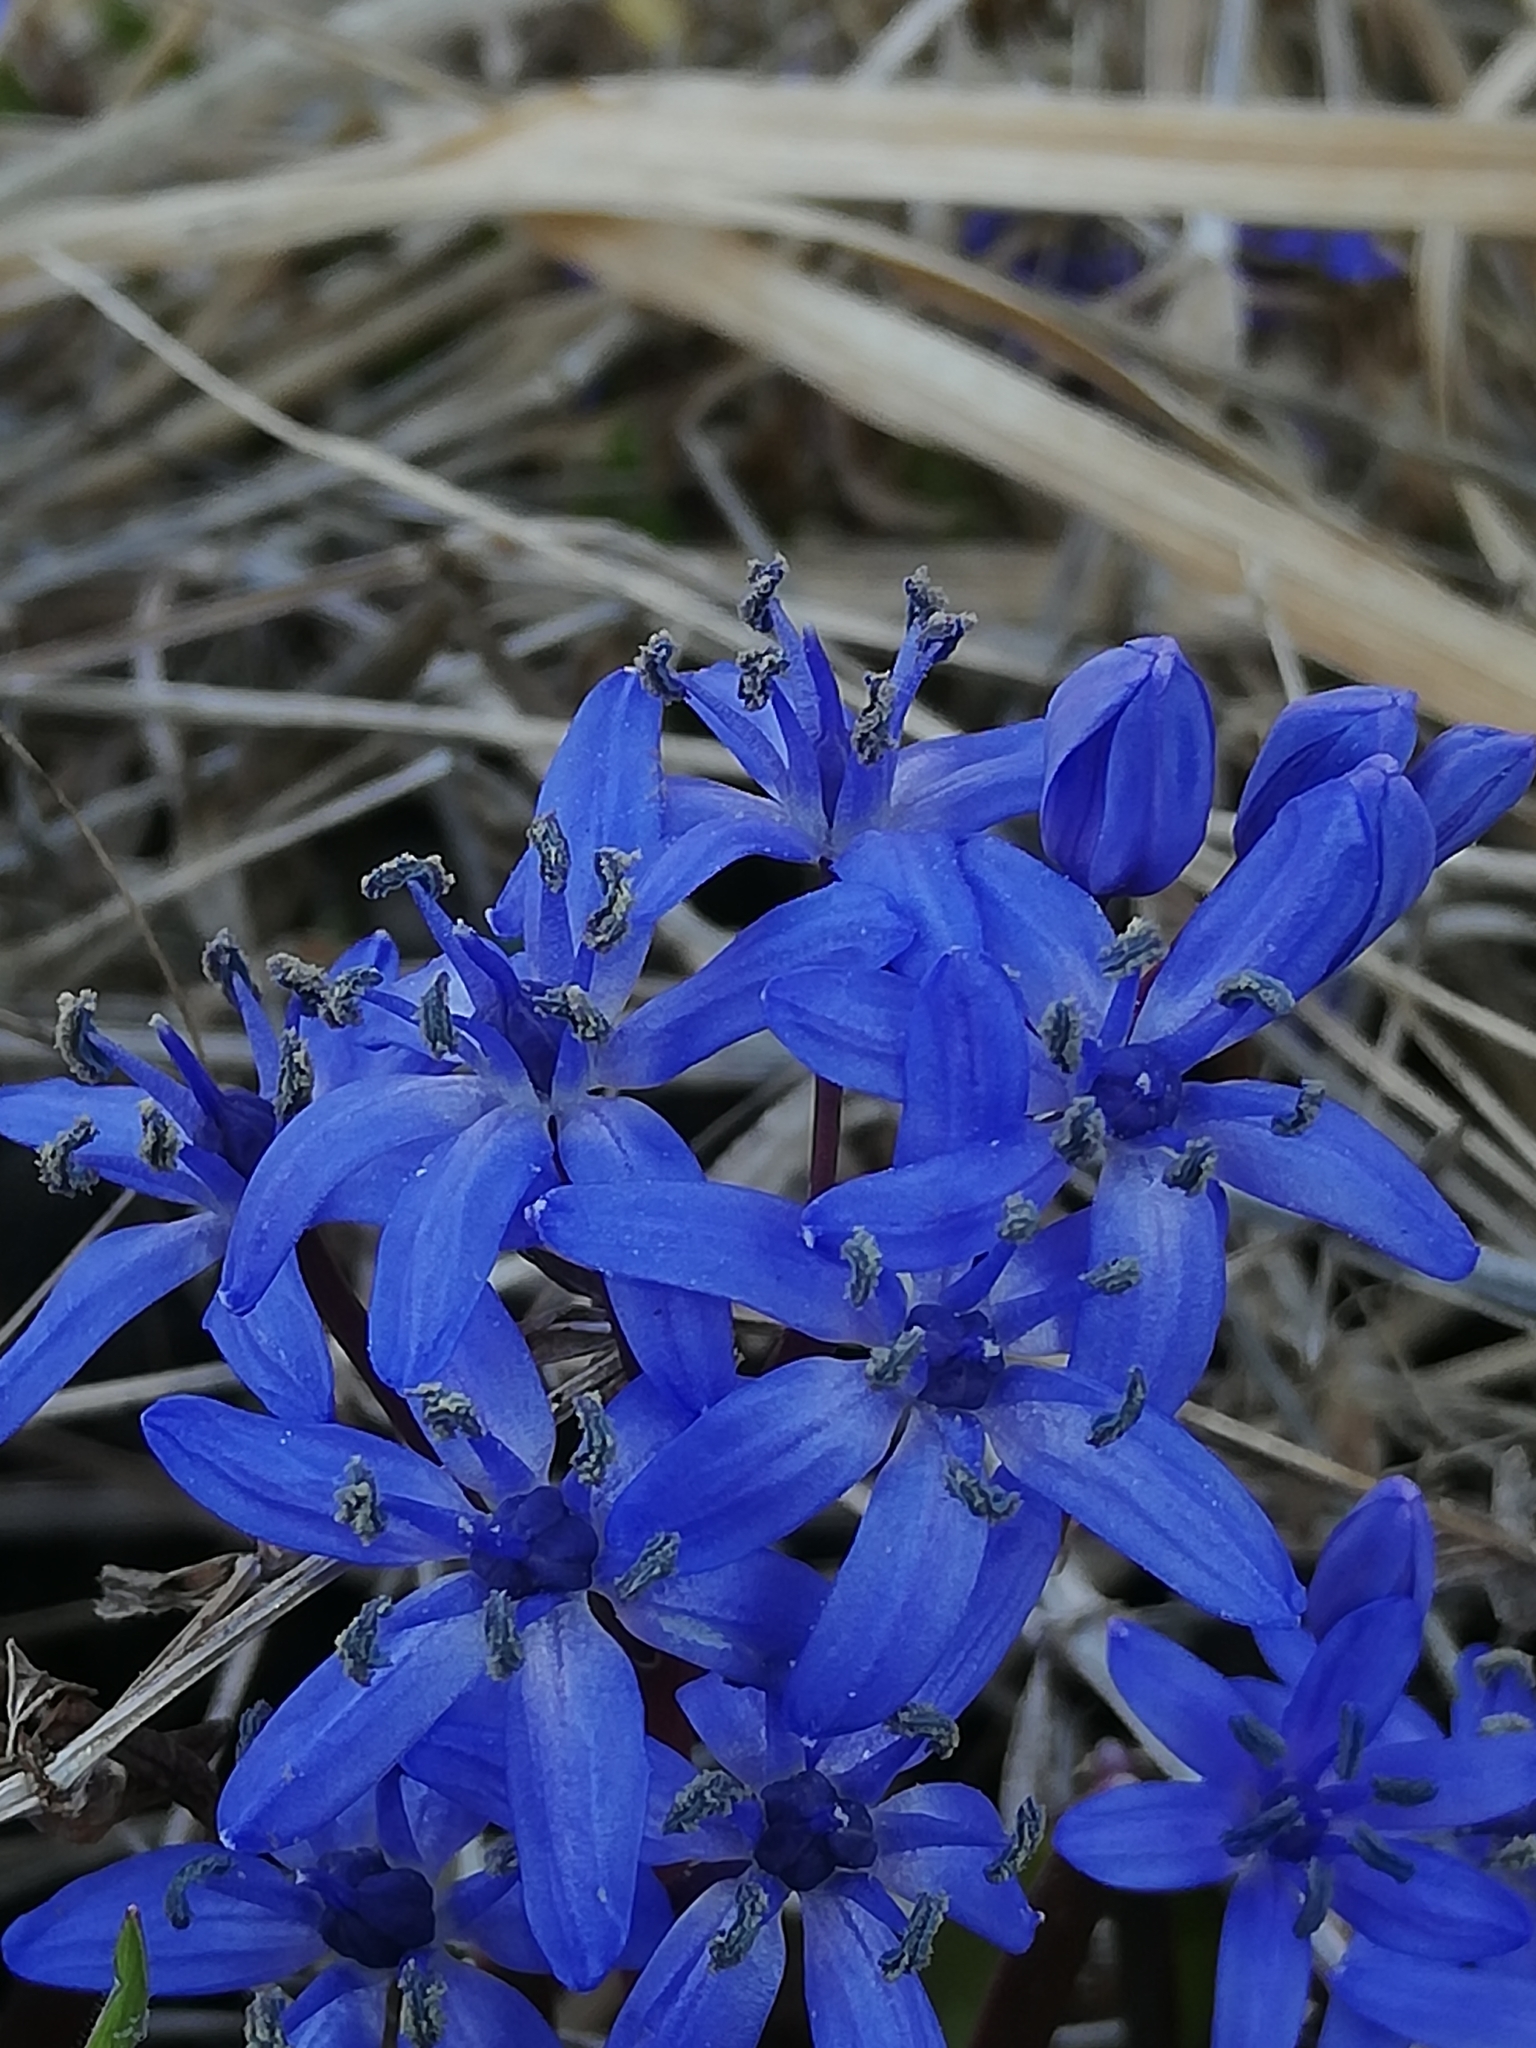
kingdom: Plantae
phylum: Tracheophyta
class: Liliopsida
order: Asparagales
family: Asparagaceae
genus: Scilla
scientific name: Scilla bifolia
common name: Alpine squill
